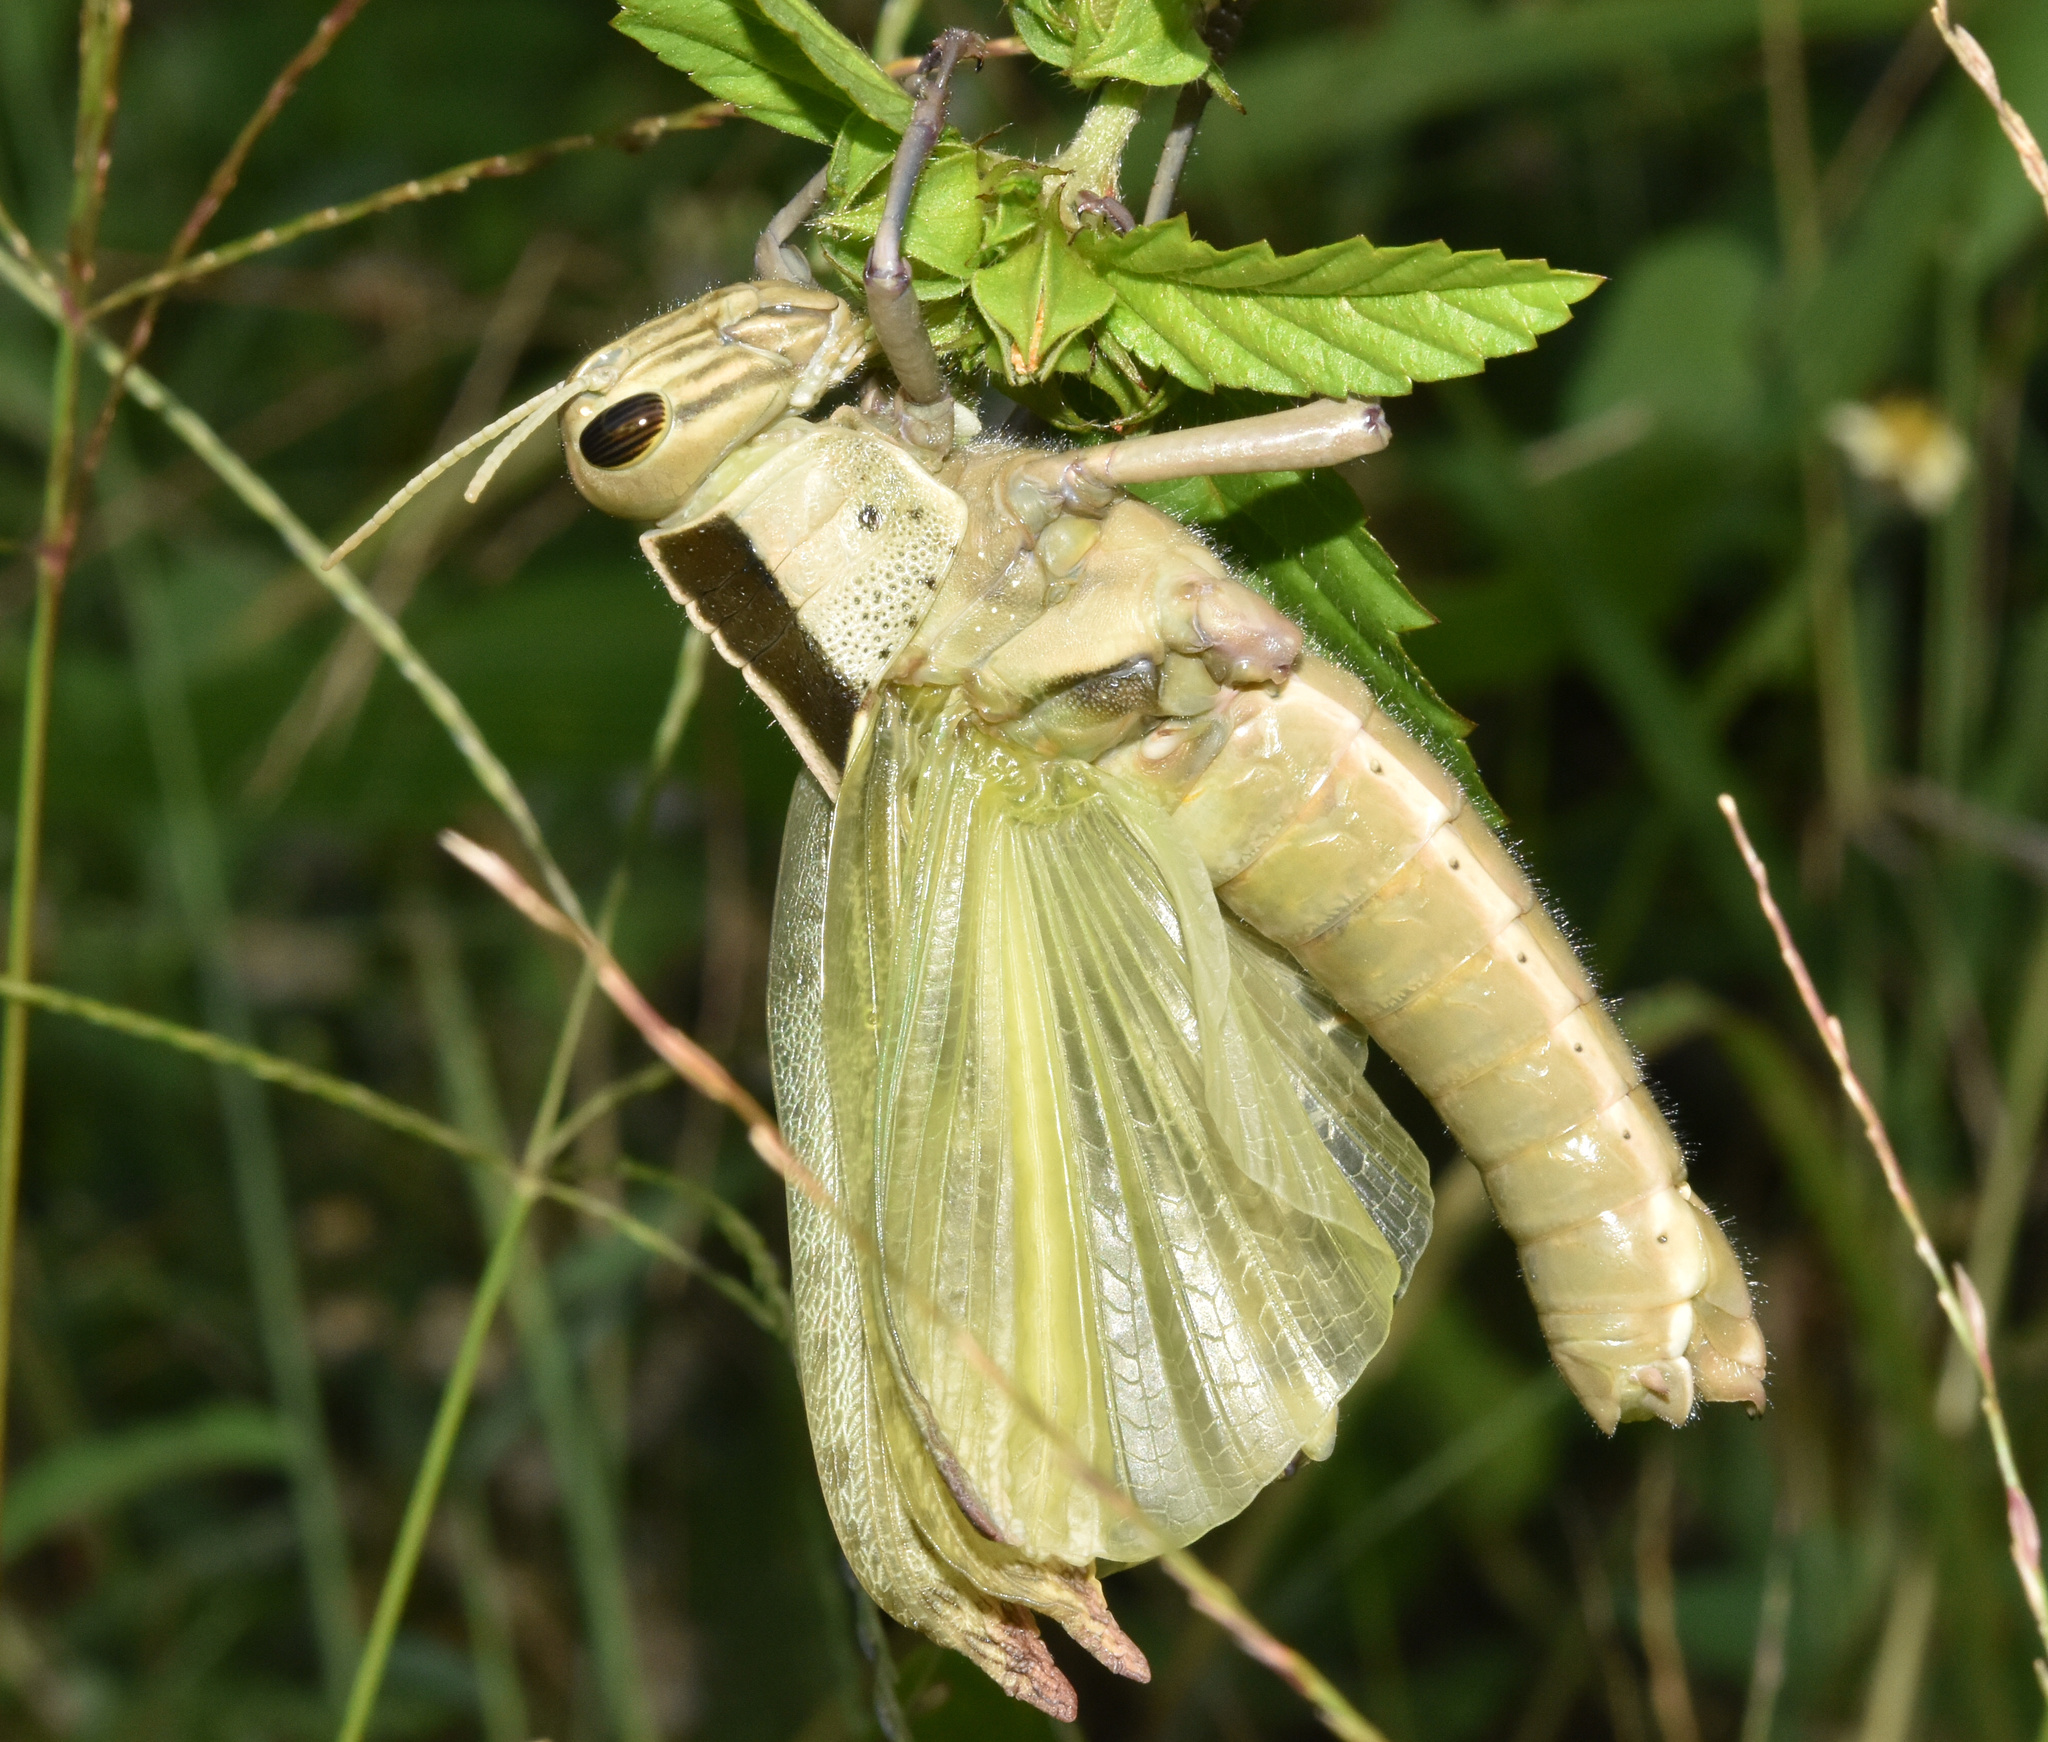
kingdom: Animalia
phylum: Arthropoda
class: Insecta
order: Orthoptera
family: Acrididae
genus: Acanthacris
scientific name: Acanthacris ruficornis
